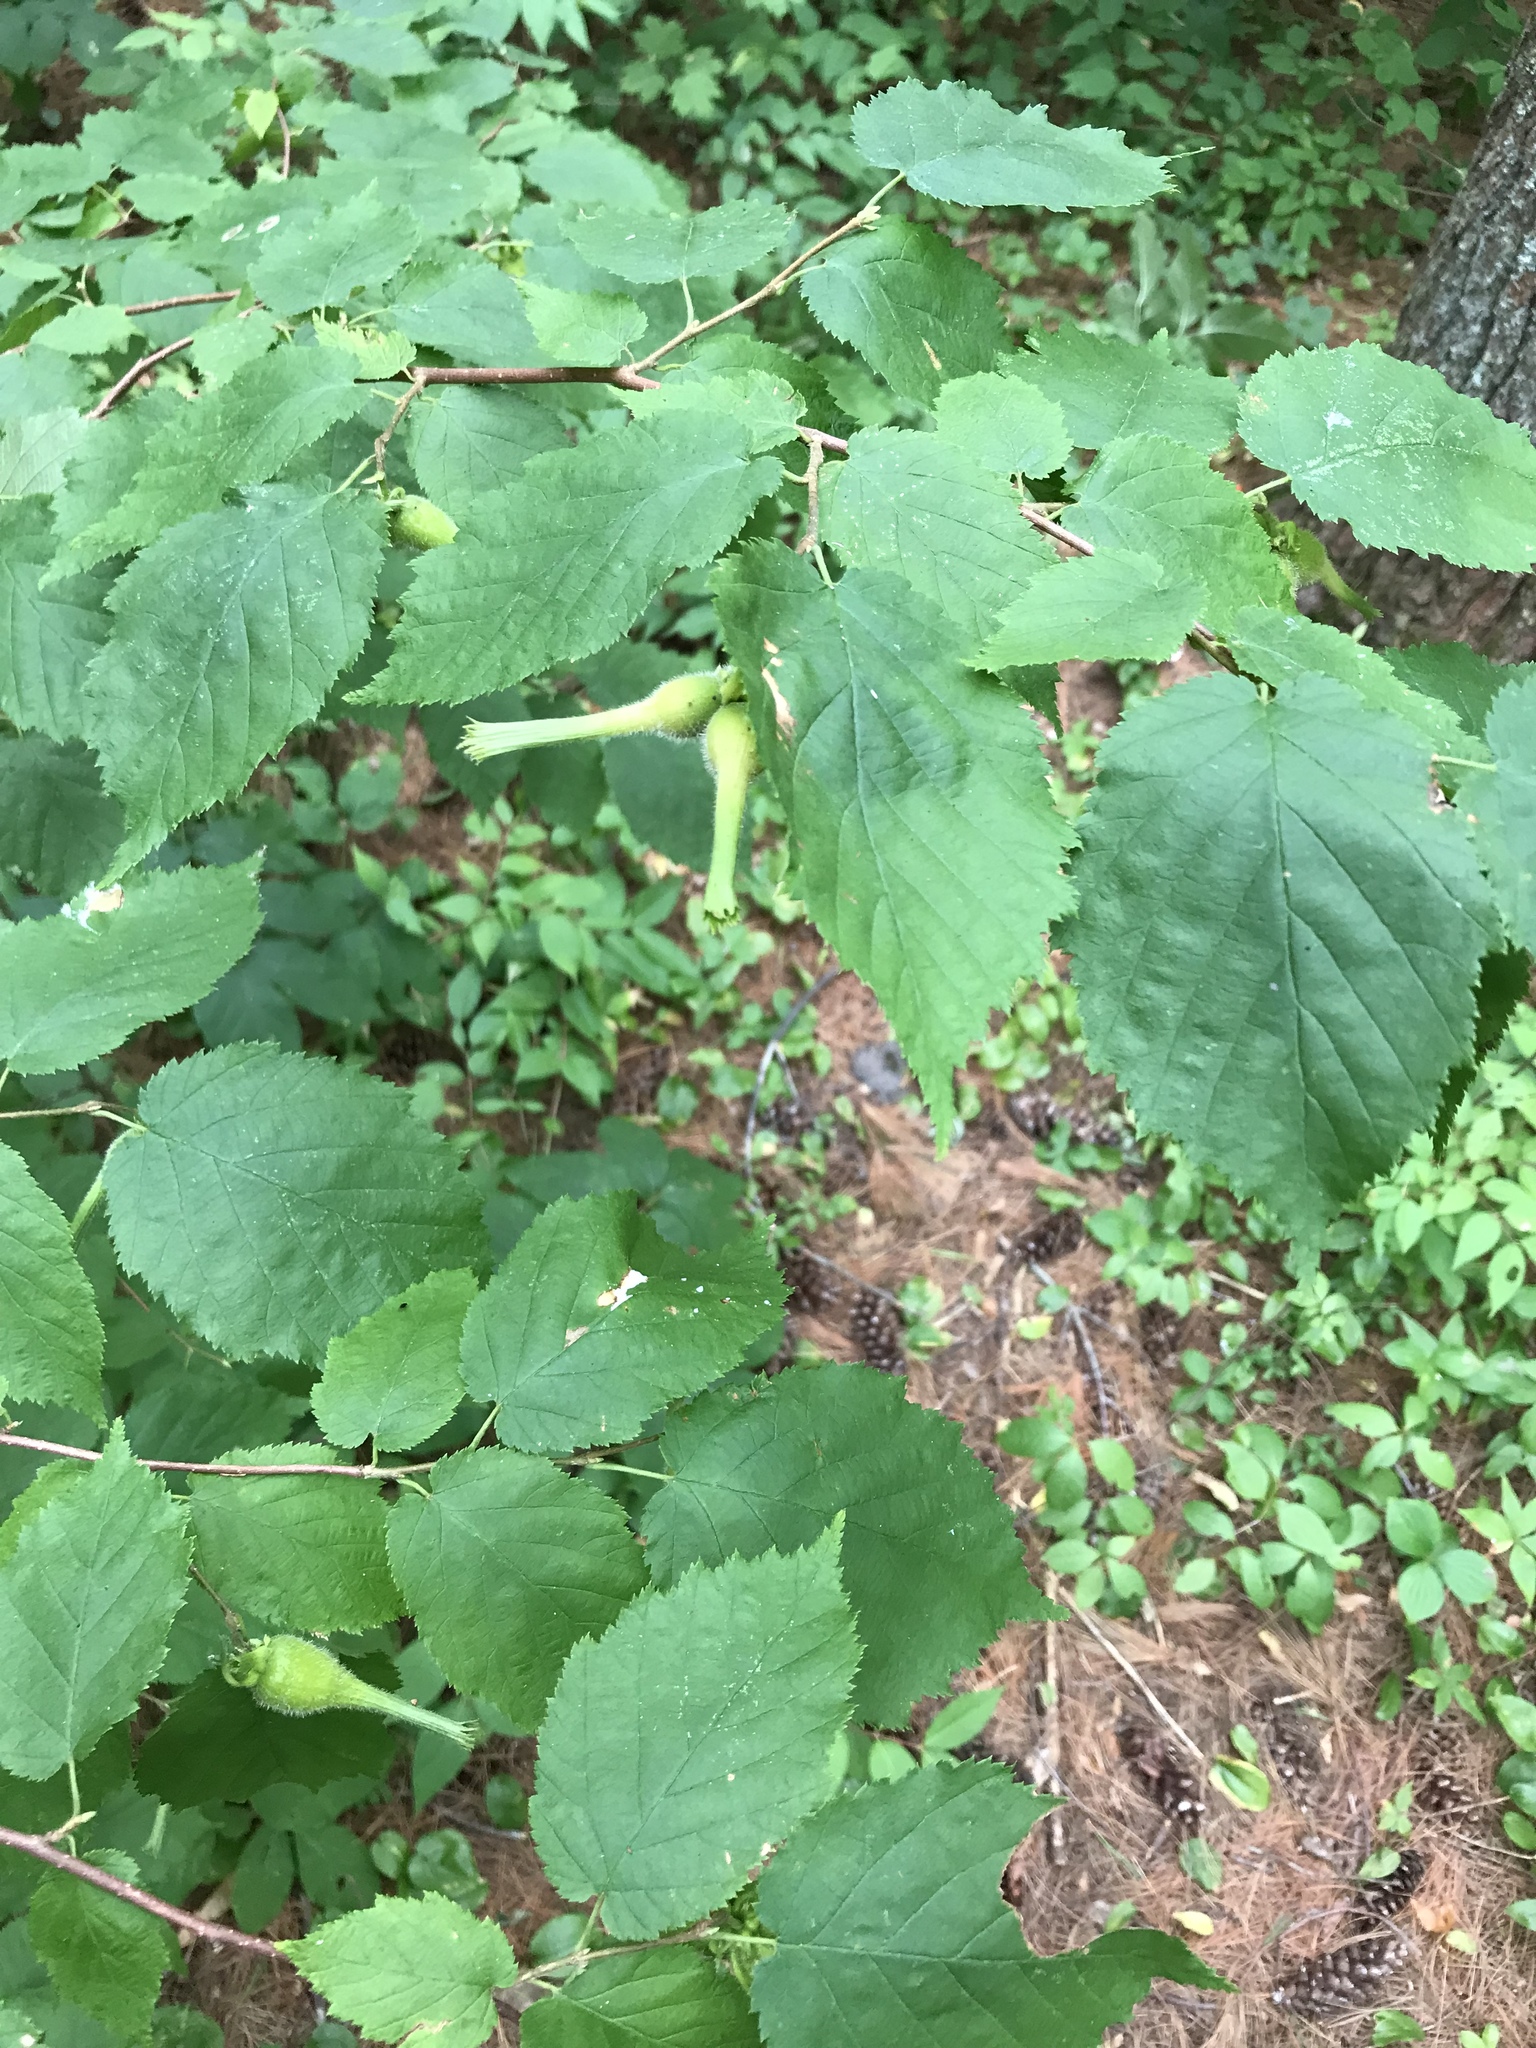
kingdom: Plantae
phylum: Tracheophyta
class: Magnoliopsida
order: Fagales
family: Betulaceae
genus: Corylus
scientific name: Corylus cornuta
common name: Beaked hazel
